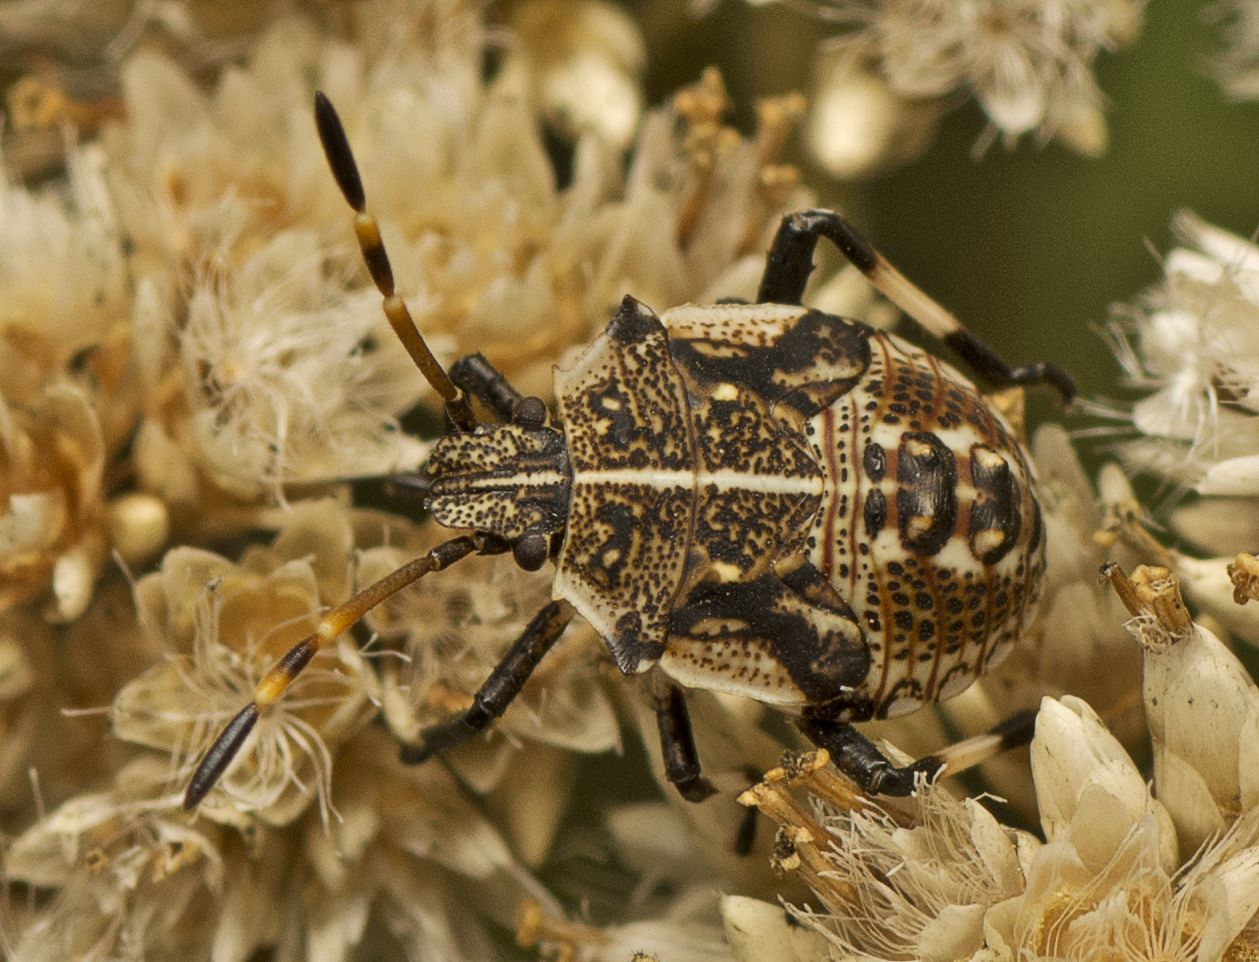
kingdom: Animalia
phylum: Arthropoda
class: Insecta
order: Hemiptera
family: Pentatomidae
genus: Oncocoris
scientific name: Oncocoris
